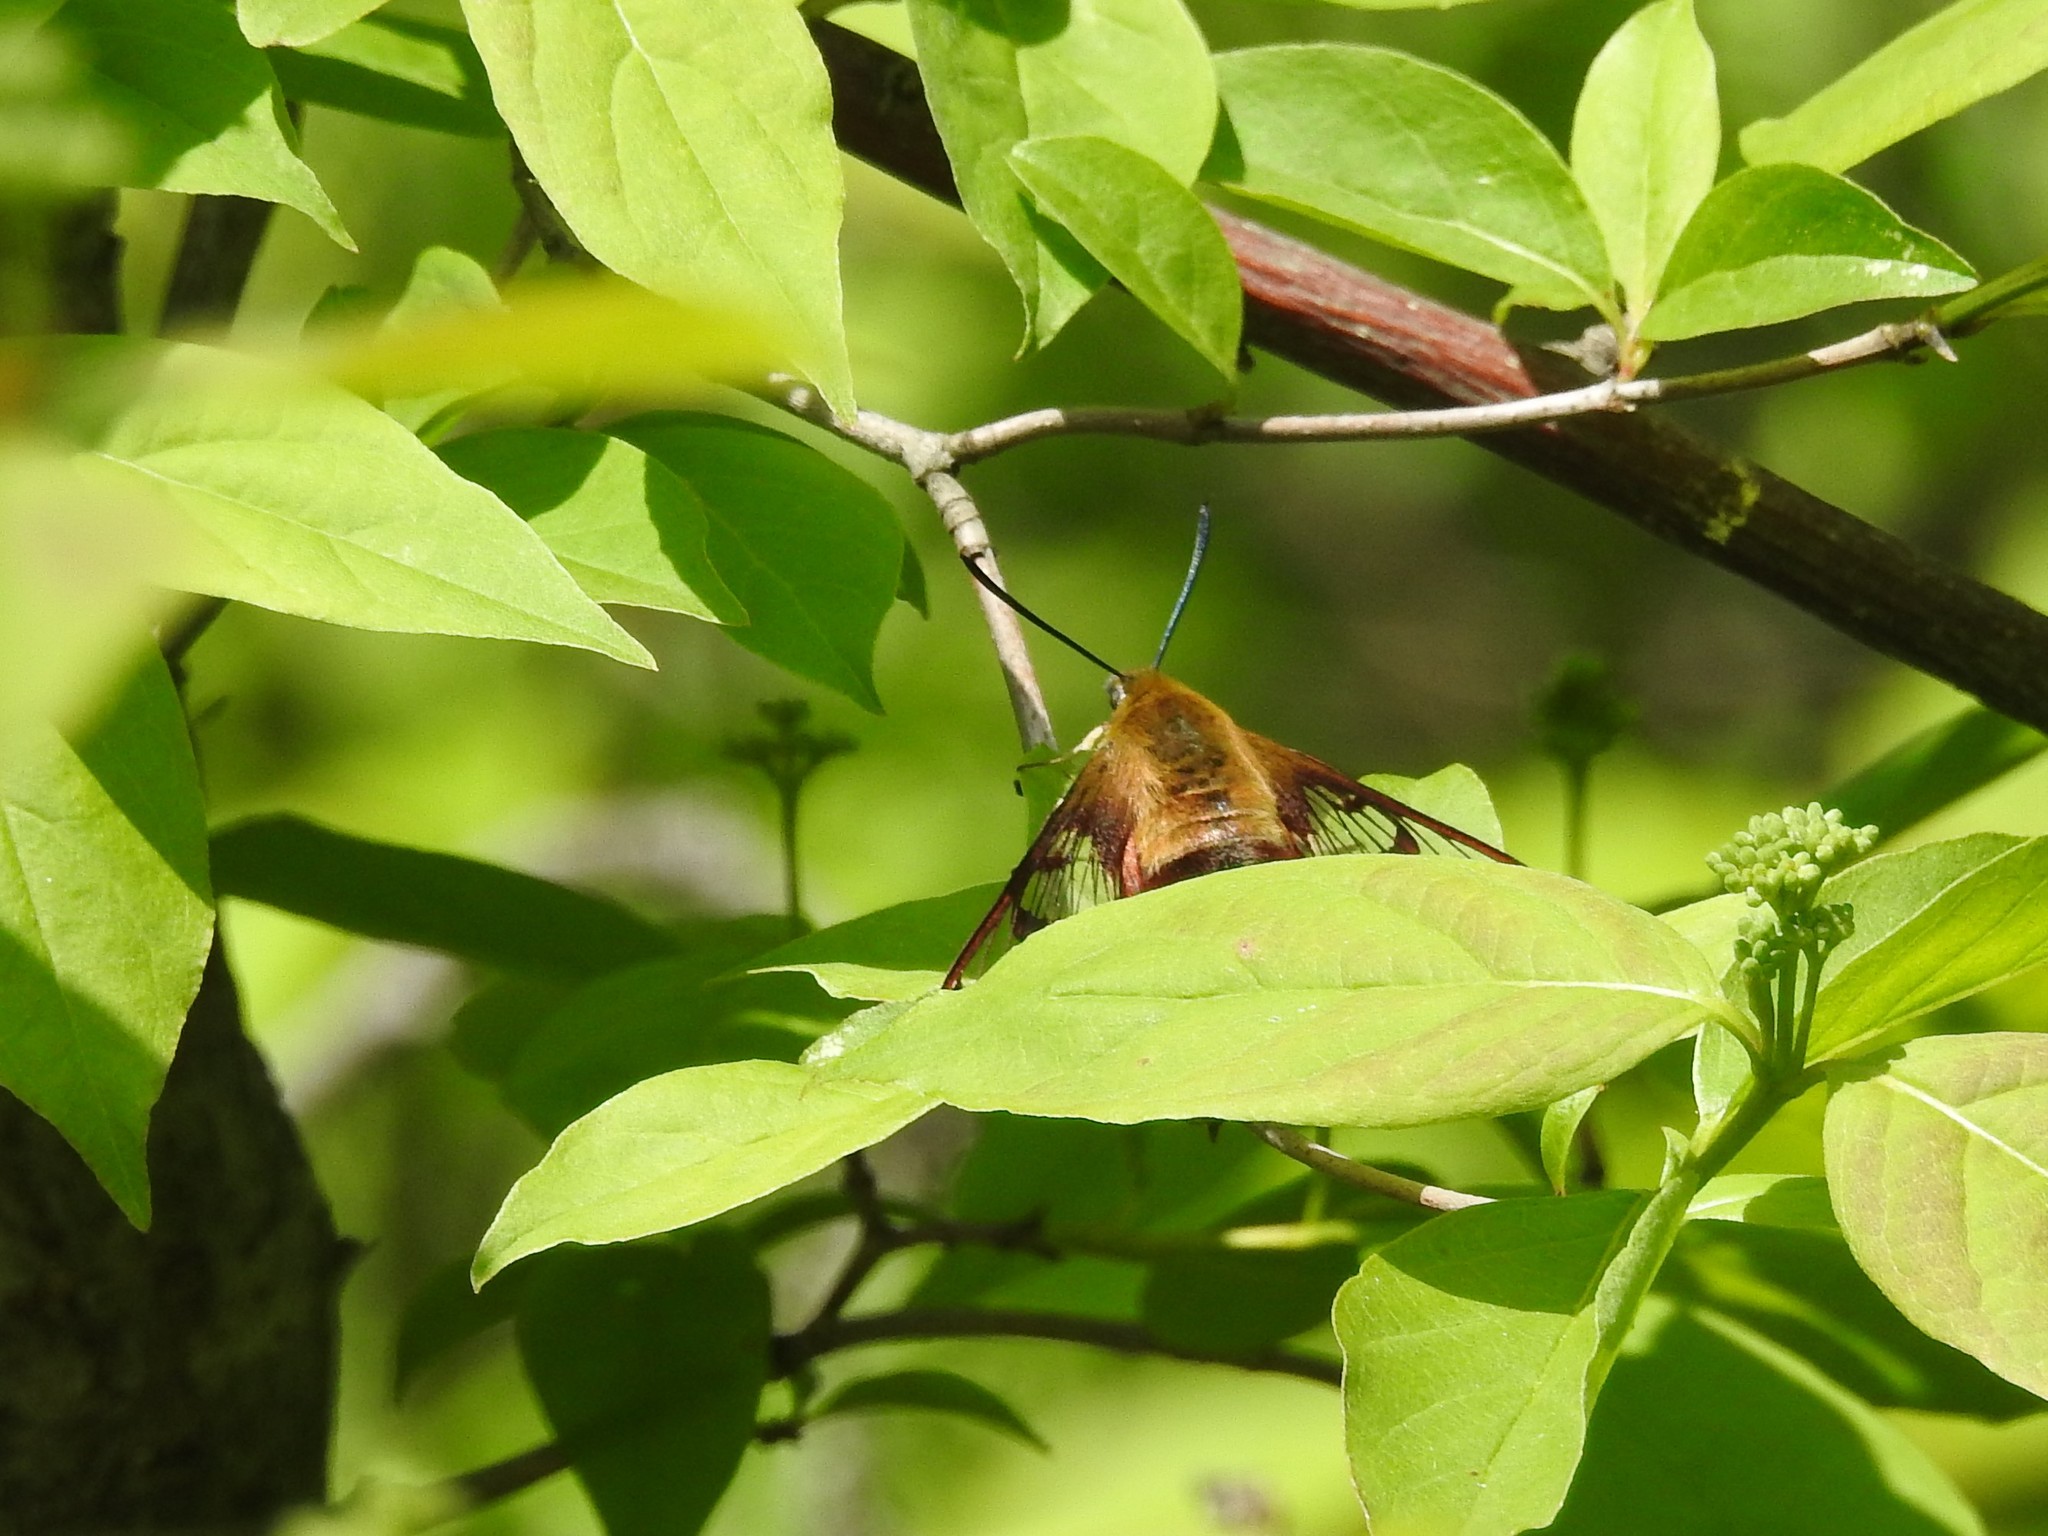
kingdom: Animalia
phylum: Arthropoda
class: Insecta
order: Lepidoptera
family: Sphingidae
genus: Hemaris
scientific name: Hemaris thysbe
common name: Common clear-wing
